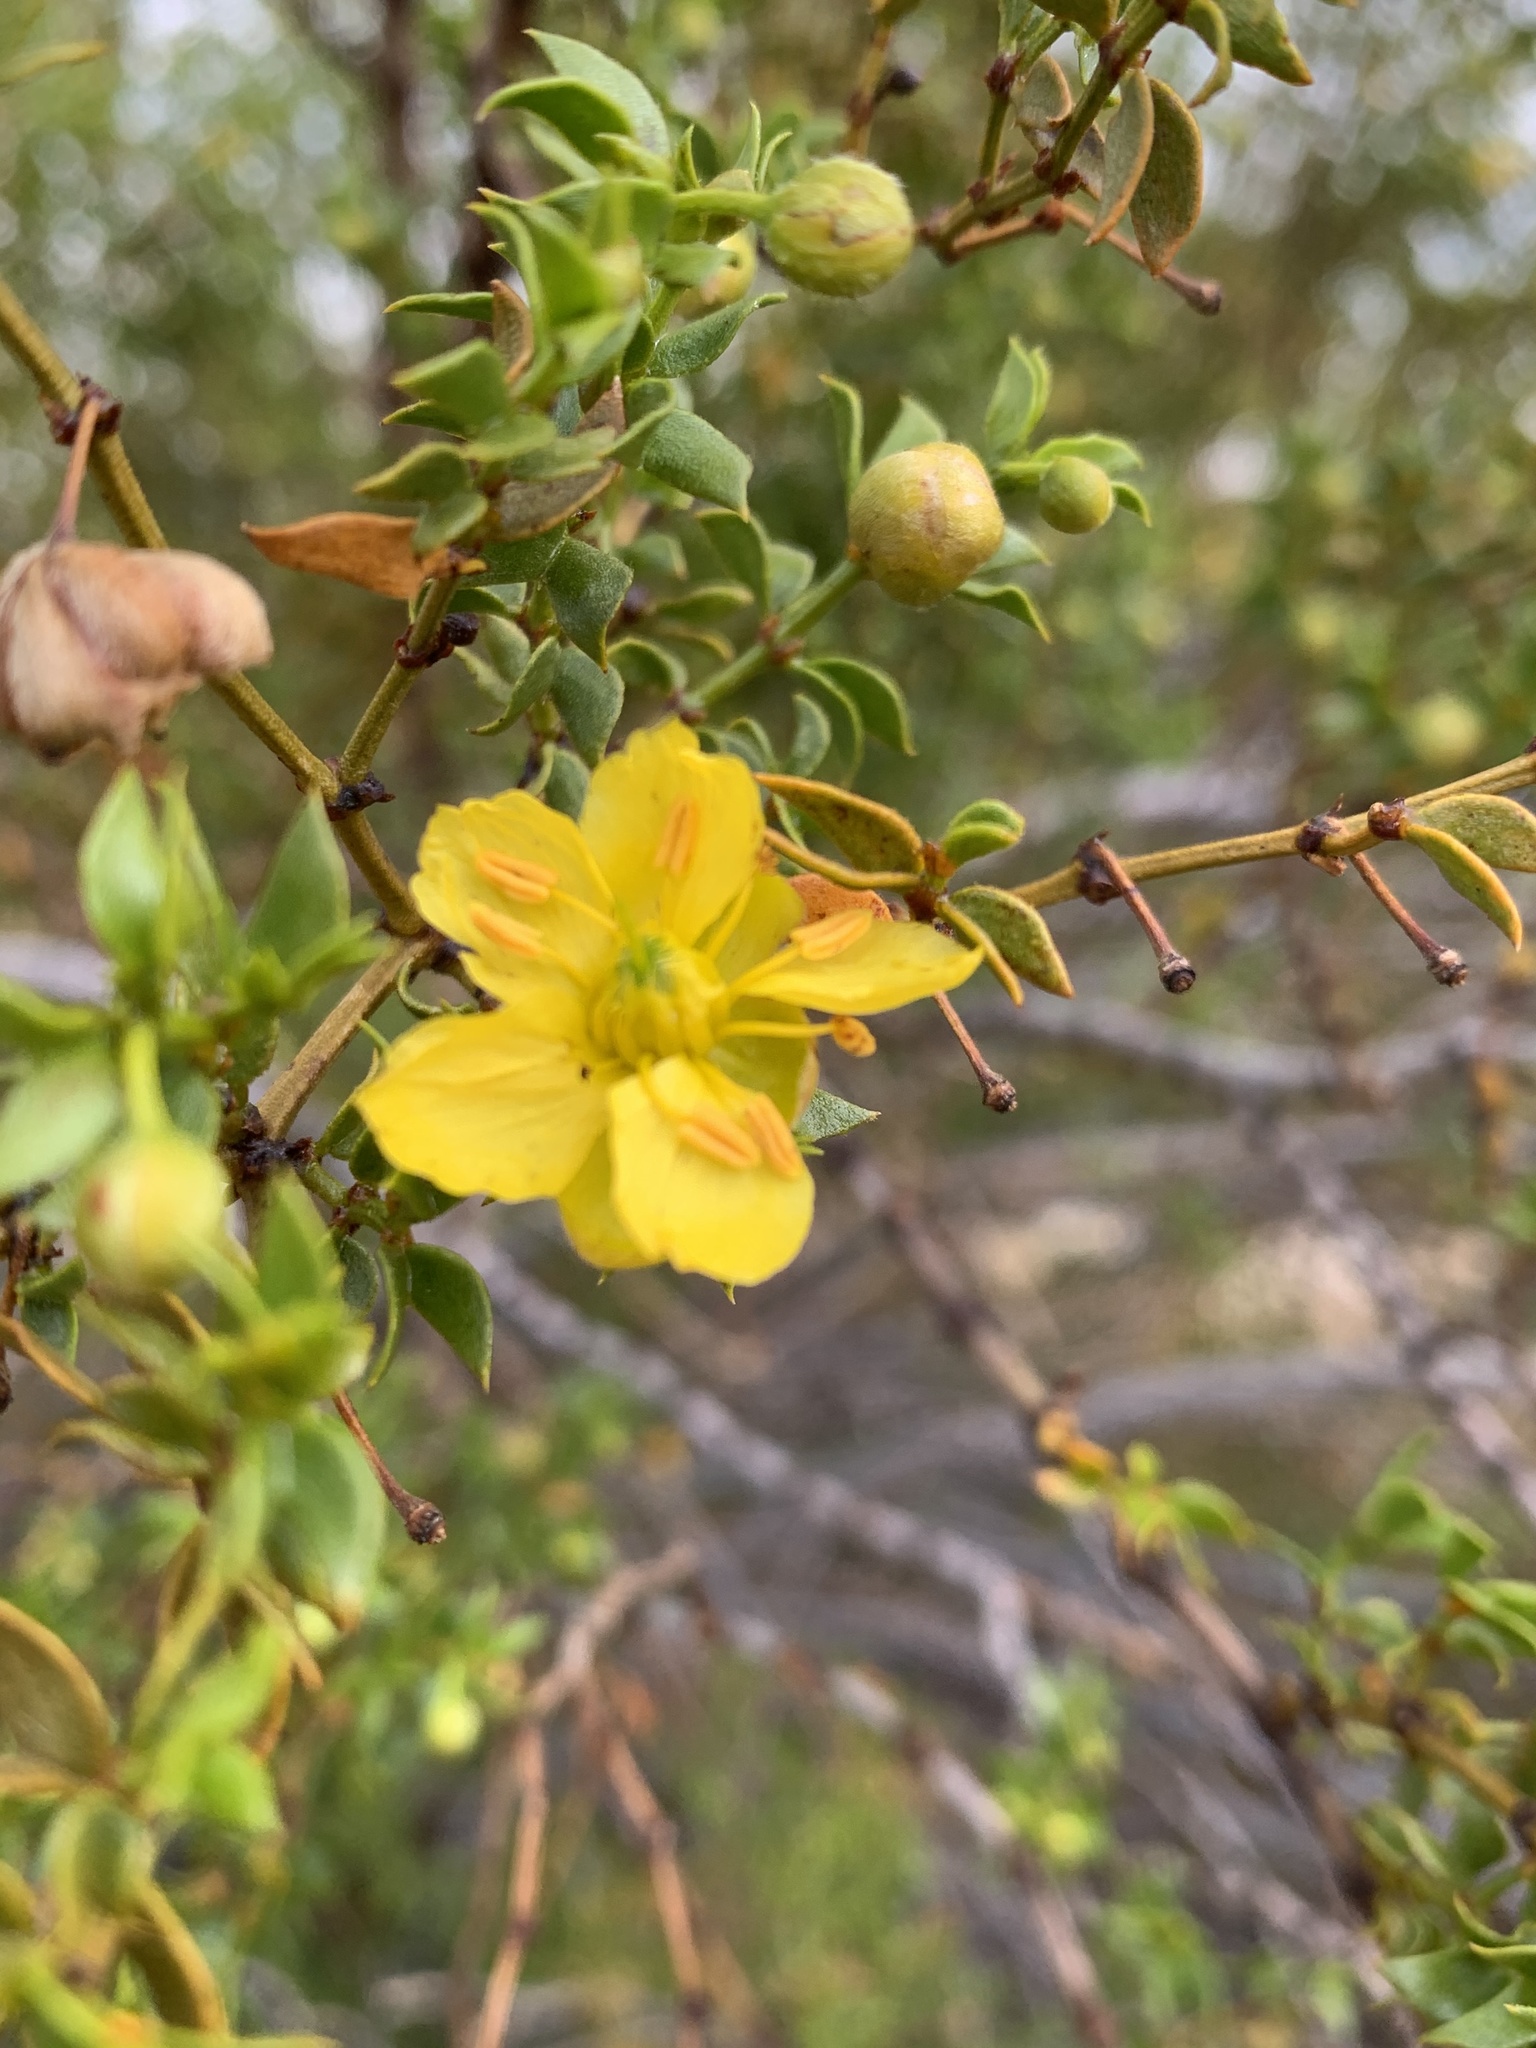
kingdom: Plantae
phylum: Tracheophyta
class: Magnoliopsida
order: Zygophyllales
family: Zygophyllaceae
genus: Larrea
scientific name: Larrea tridentata
